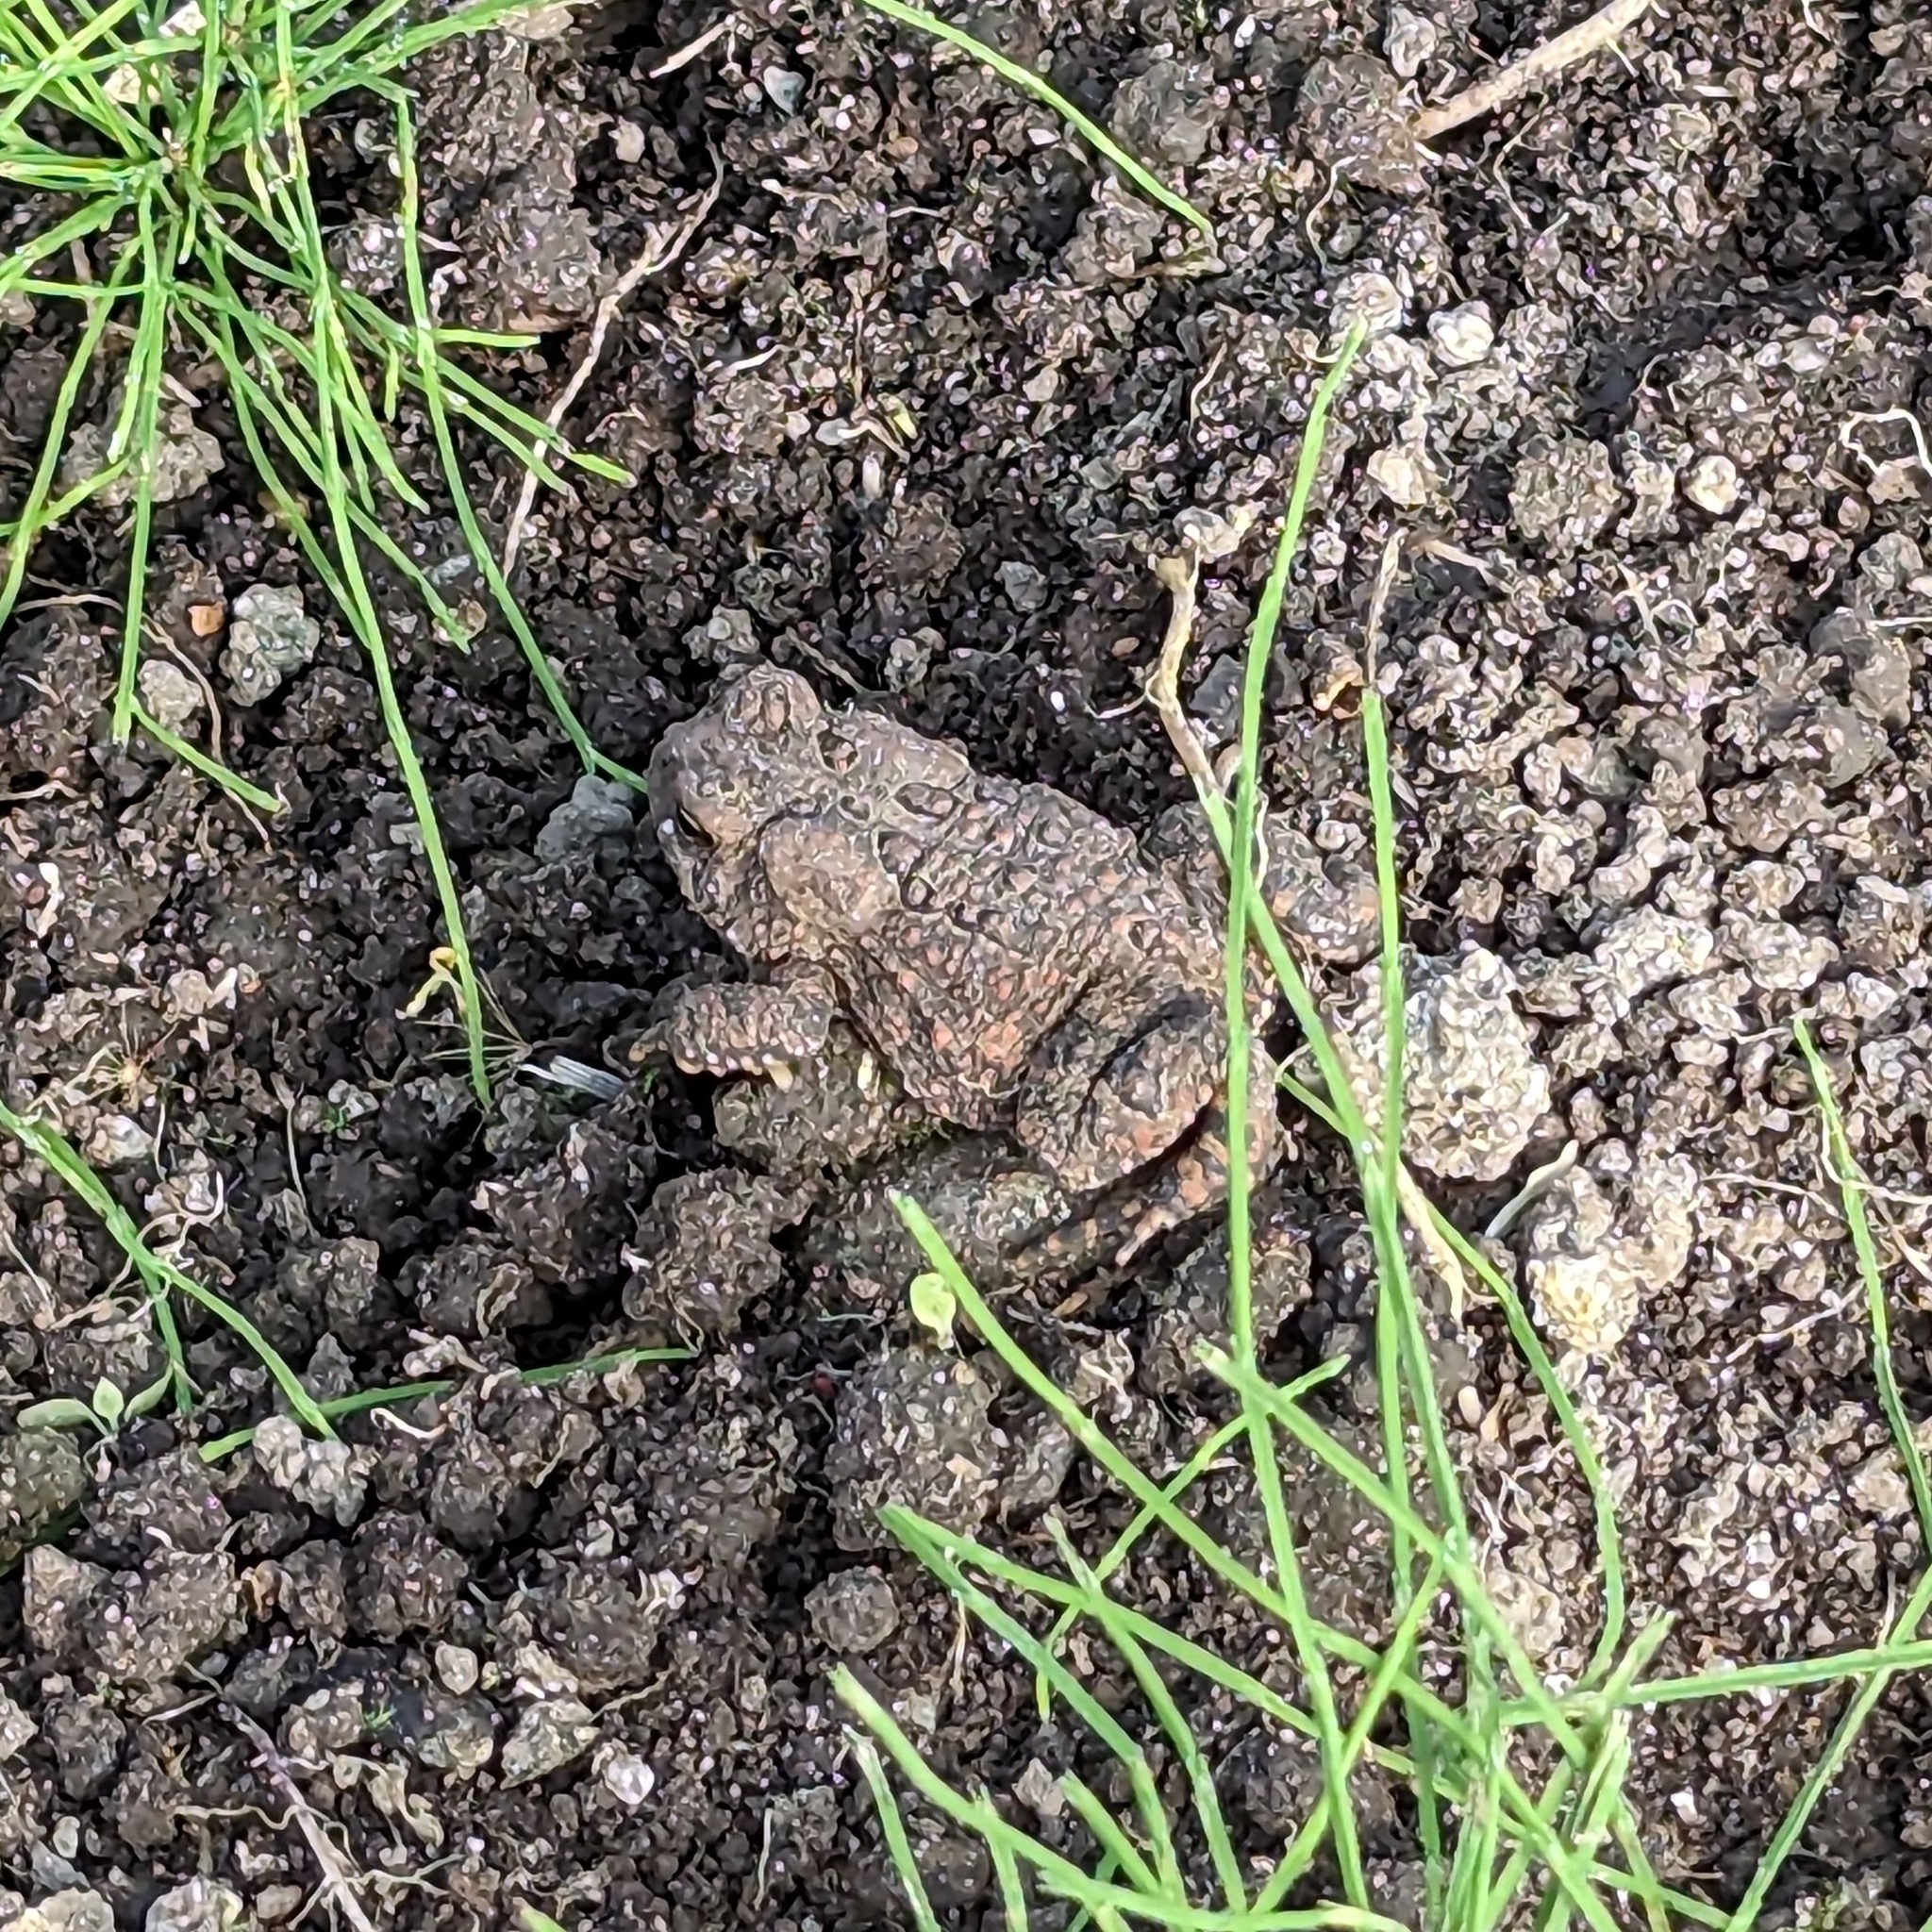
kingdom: Animalia
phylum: Chordata
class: Amphibia
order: Anura
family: Bufonidae
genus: Anaxyrus
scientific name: Anaxyrus americanus
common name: American toad
